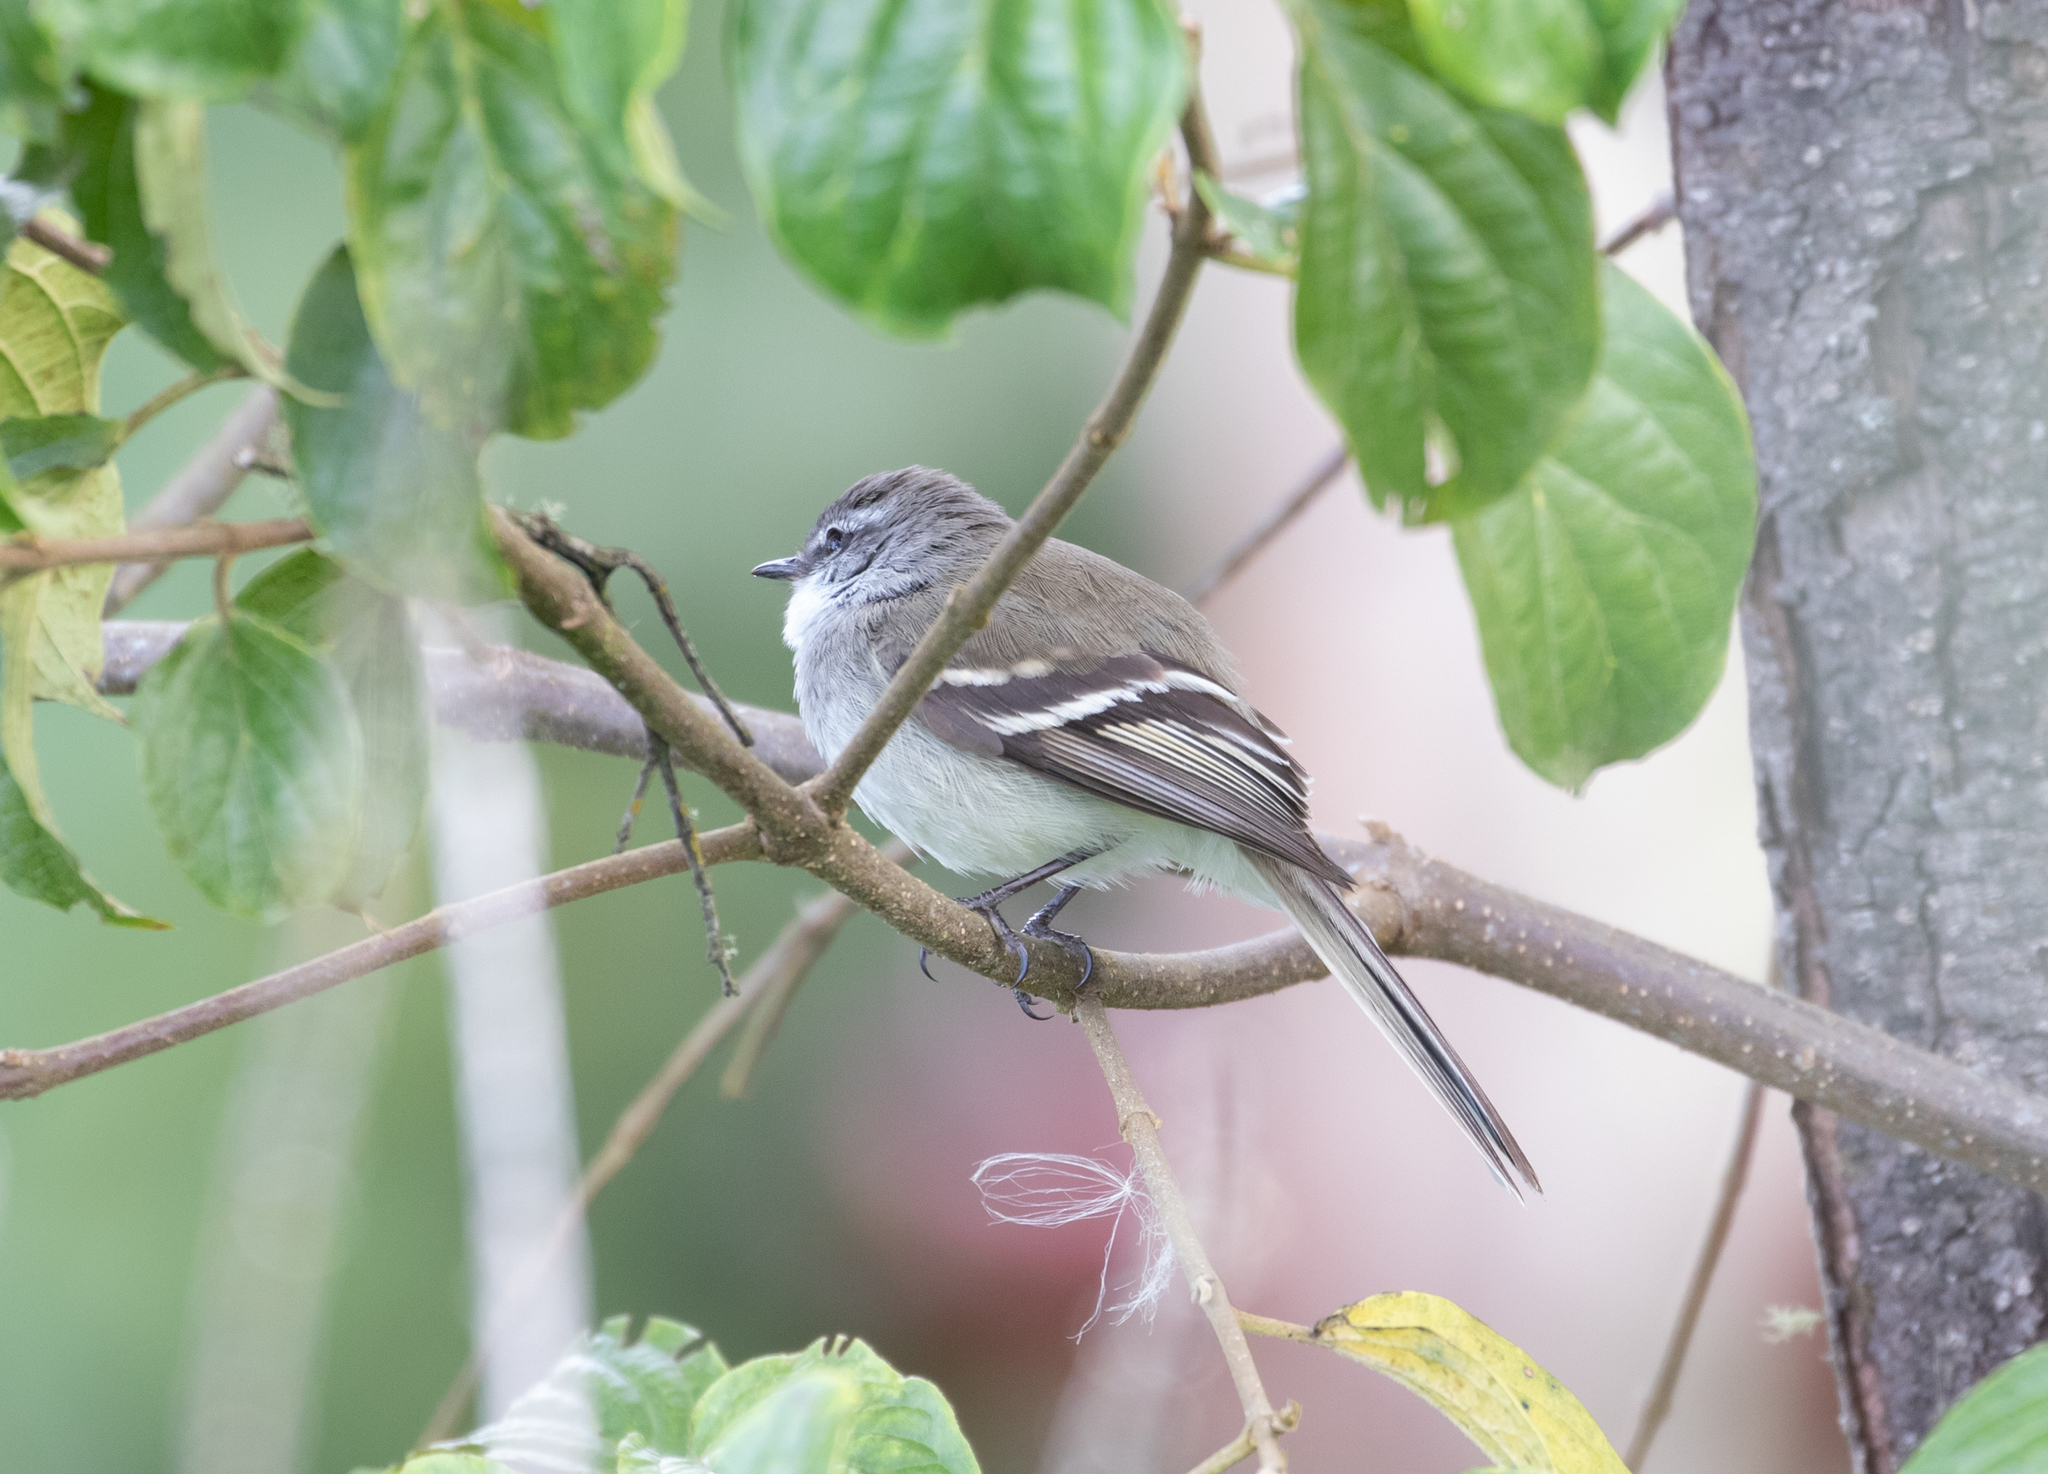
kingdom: Animalia
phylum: Chordata
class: Aves
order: Passeriformes
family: Tyrannidae
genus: Mecocerculus
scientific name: Mecocerculus leucophrys
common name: White-throated tyrannulet
